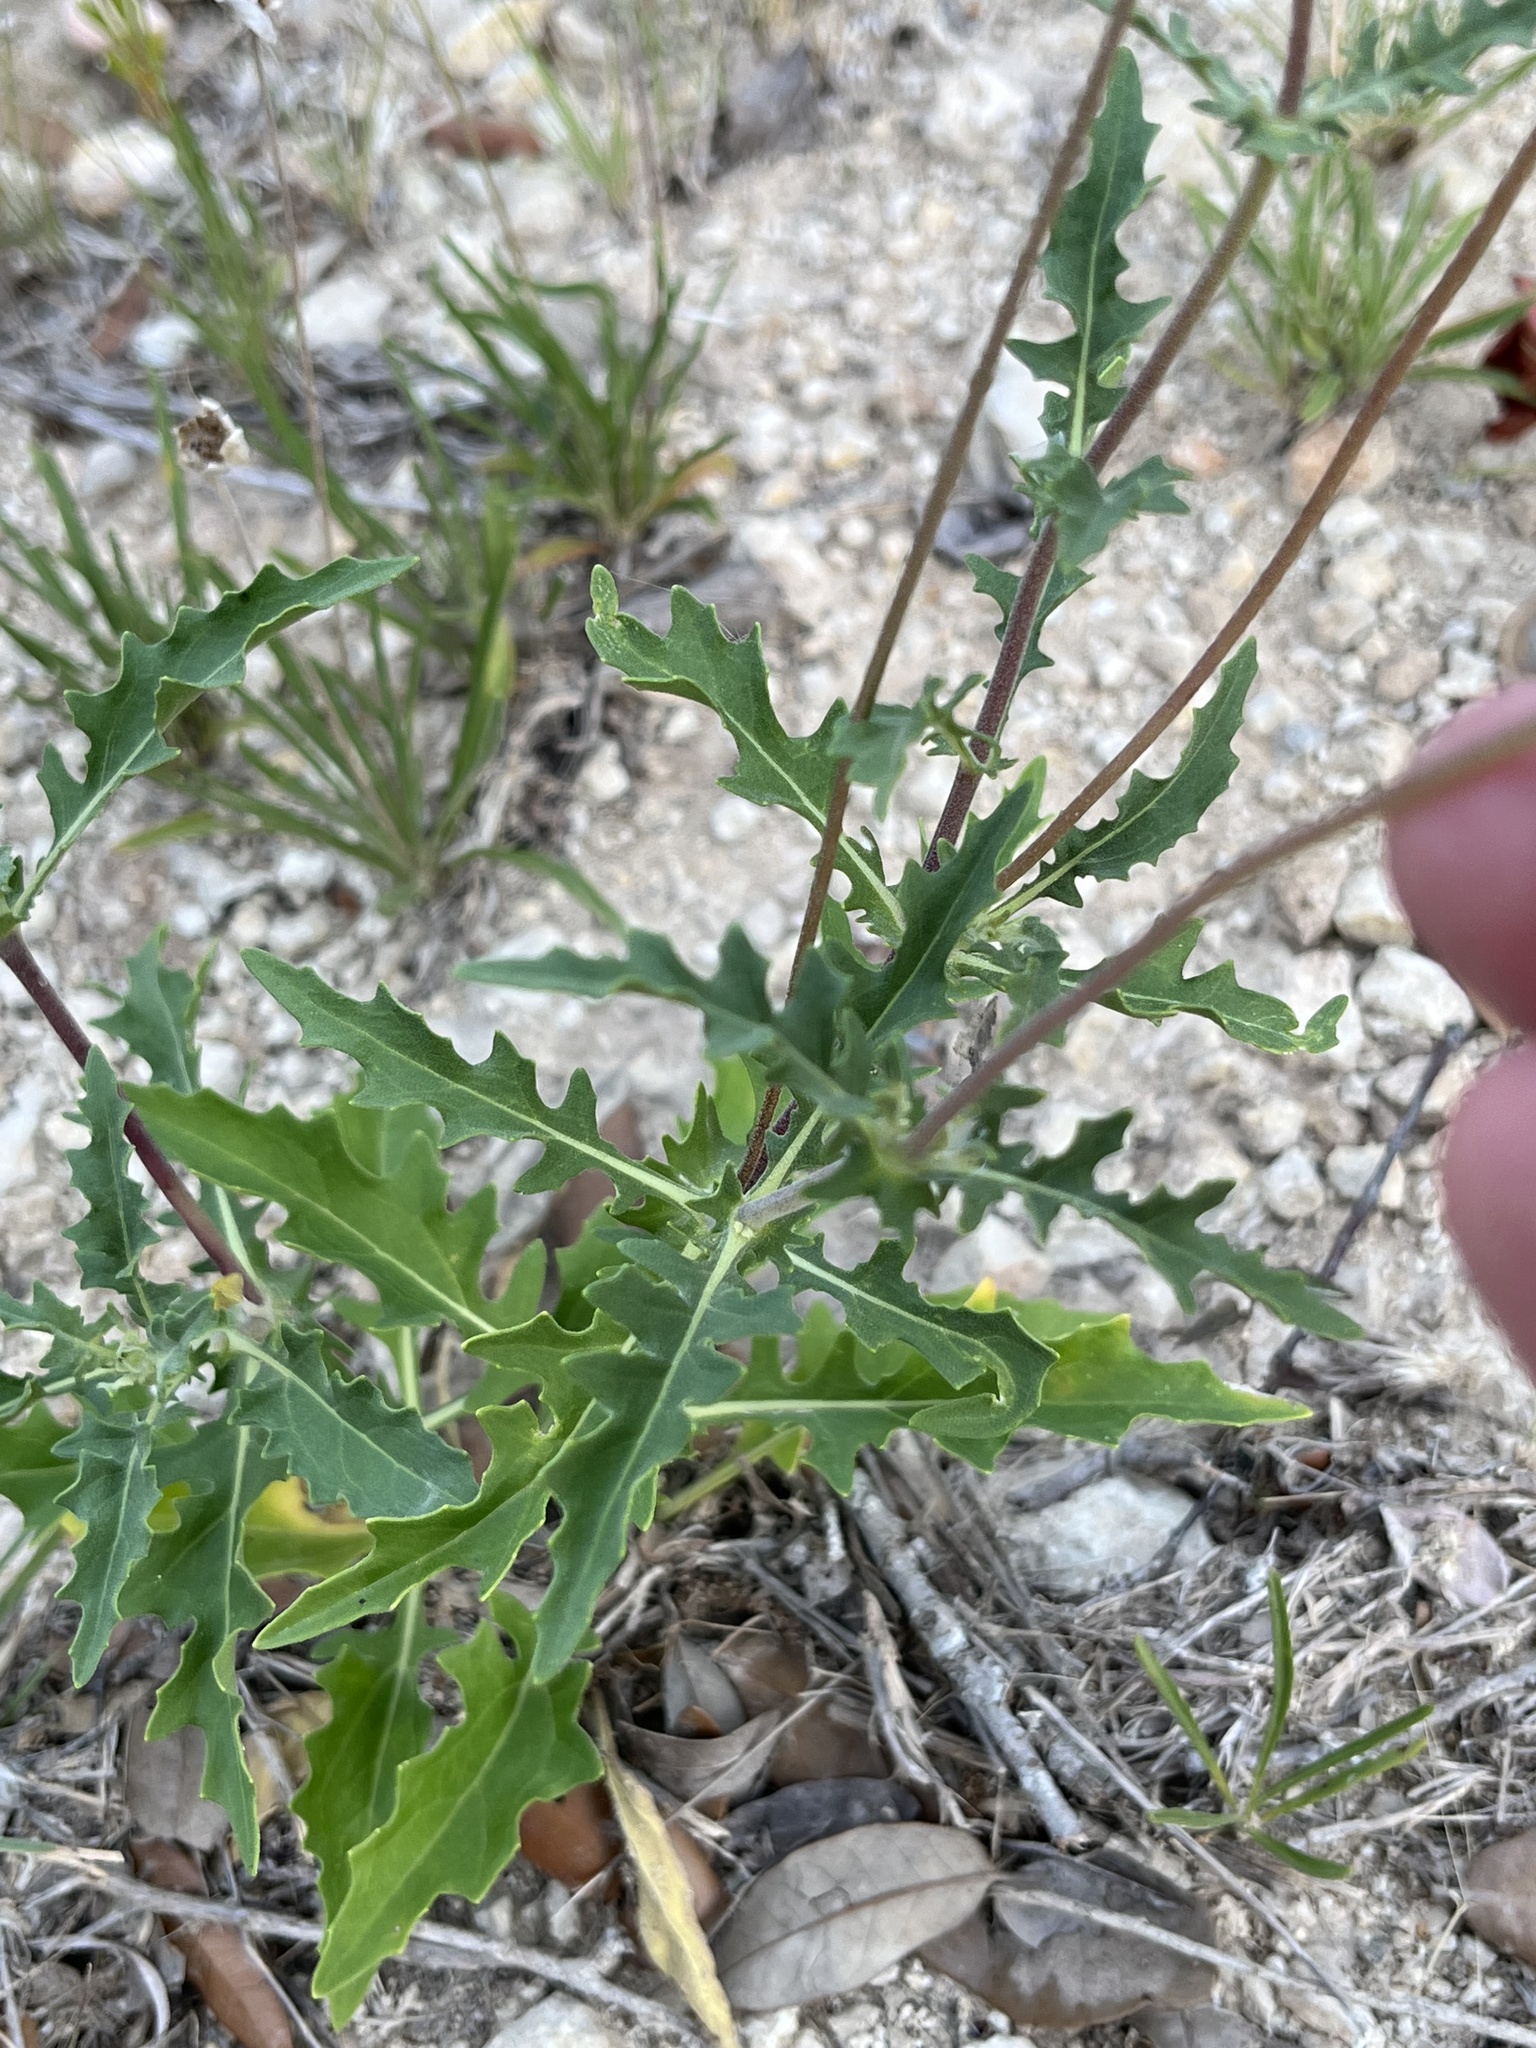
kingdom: Plantae
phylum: Tracheophyta
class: Magnoliopsida
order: Asterales
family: Asteraceae
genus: Tetragonotheca
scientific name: Tetragonotheca texana
